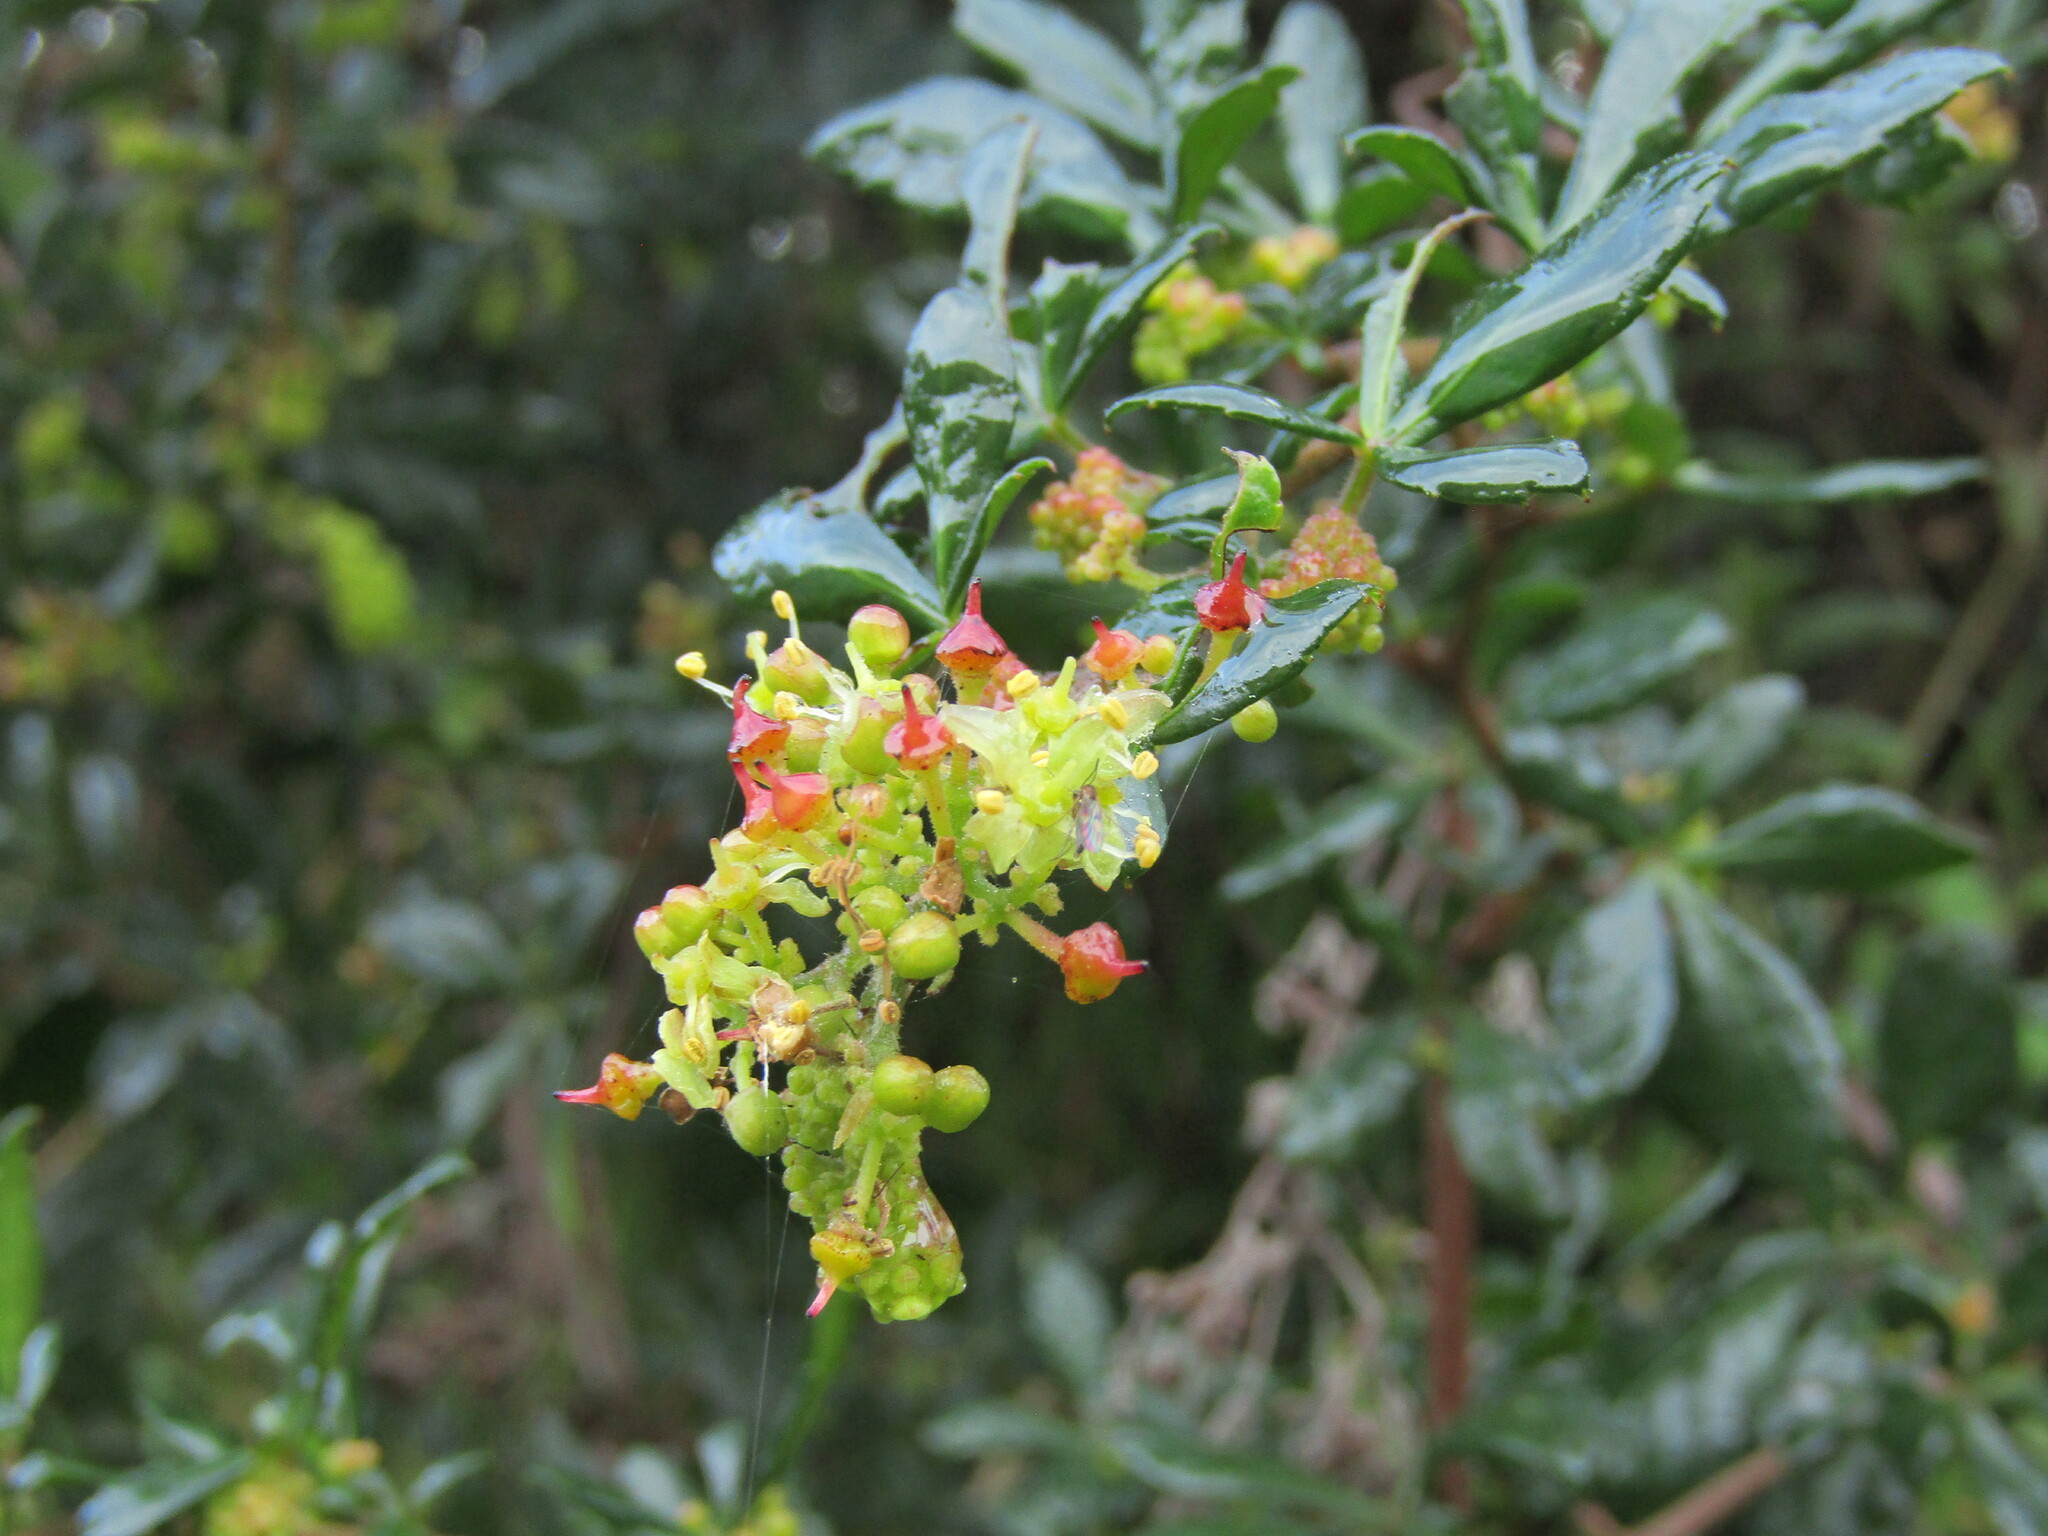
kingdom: Plantae
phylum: Tracheophyta
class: Magnoliopsida
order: Vitales
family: Vitaceae
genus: Clematicissus
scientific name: Clematicissus striata
